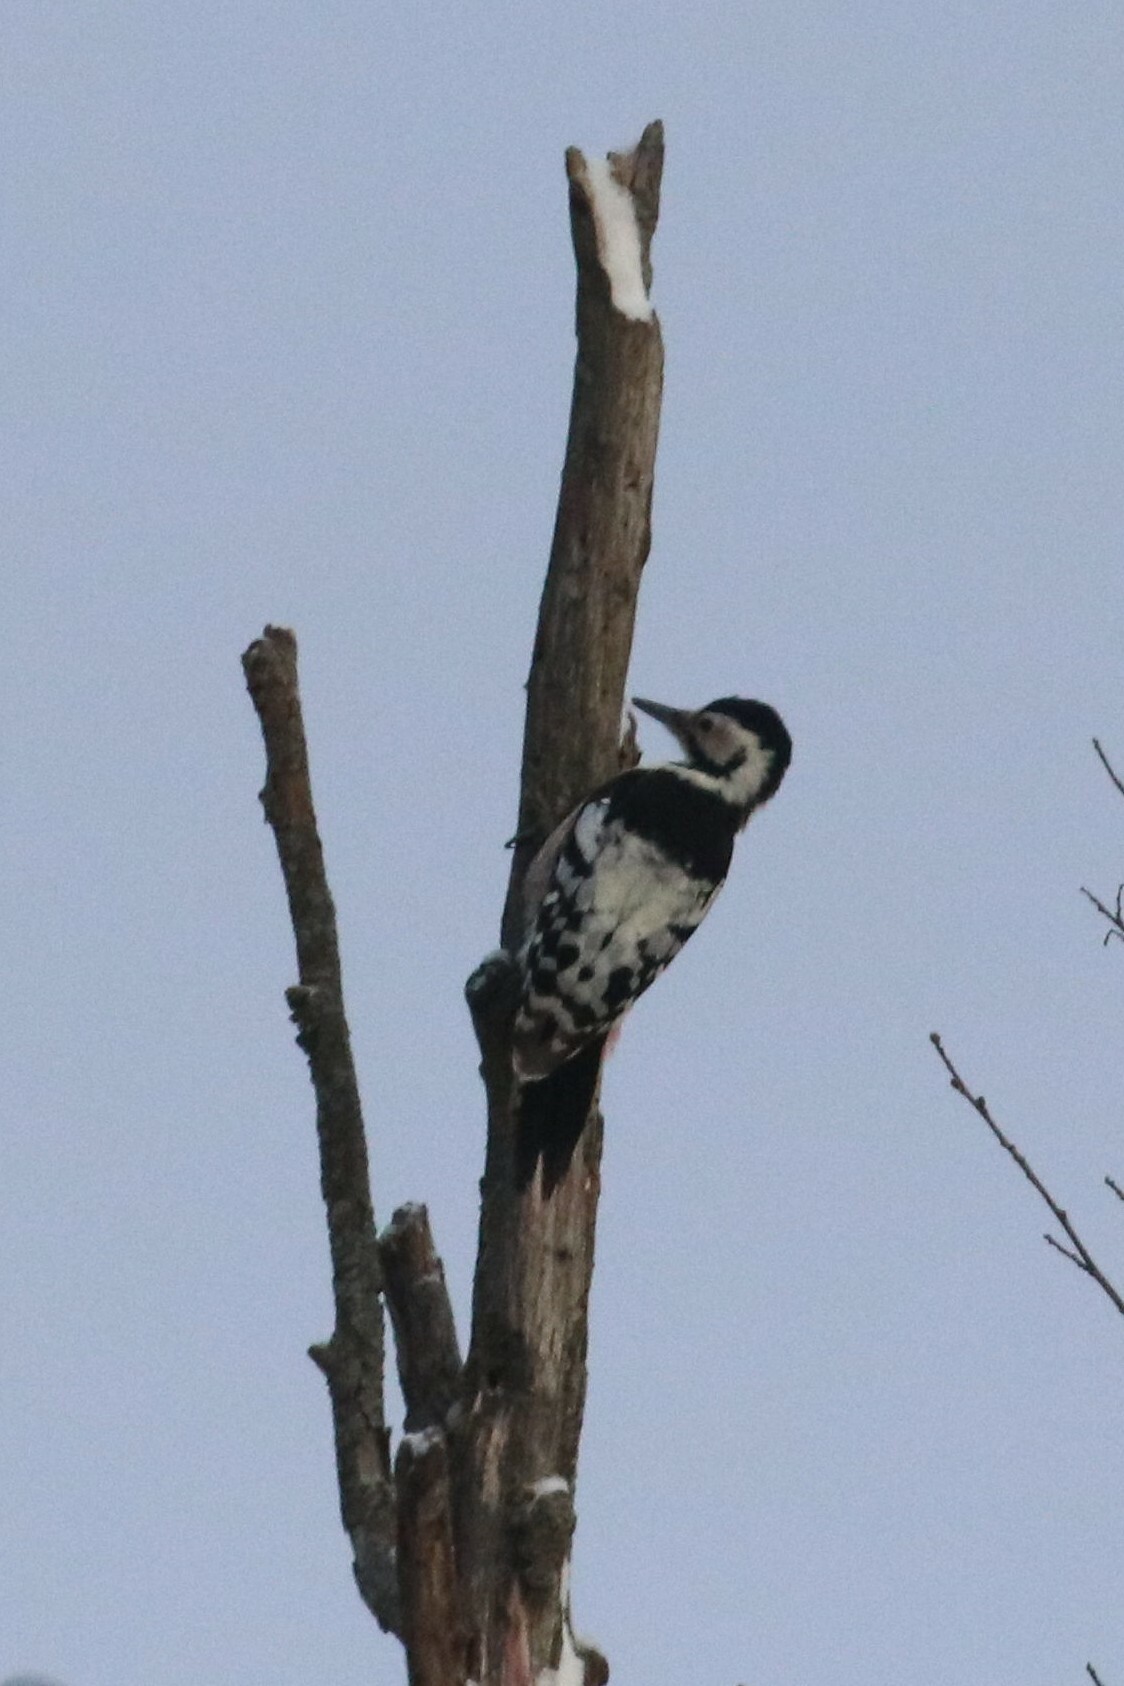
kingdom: Animalia
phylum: Chordata
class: Aves
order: Piciformes
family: Picidae
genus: Dendrocopos
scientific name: Dendrocopos leucotos
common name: White-backed woodpecker
